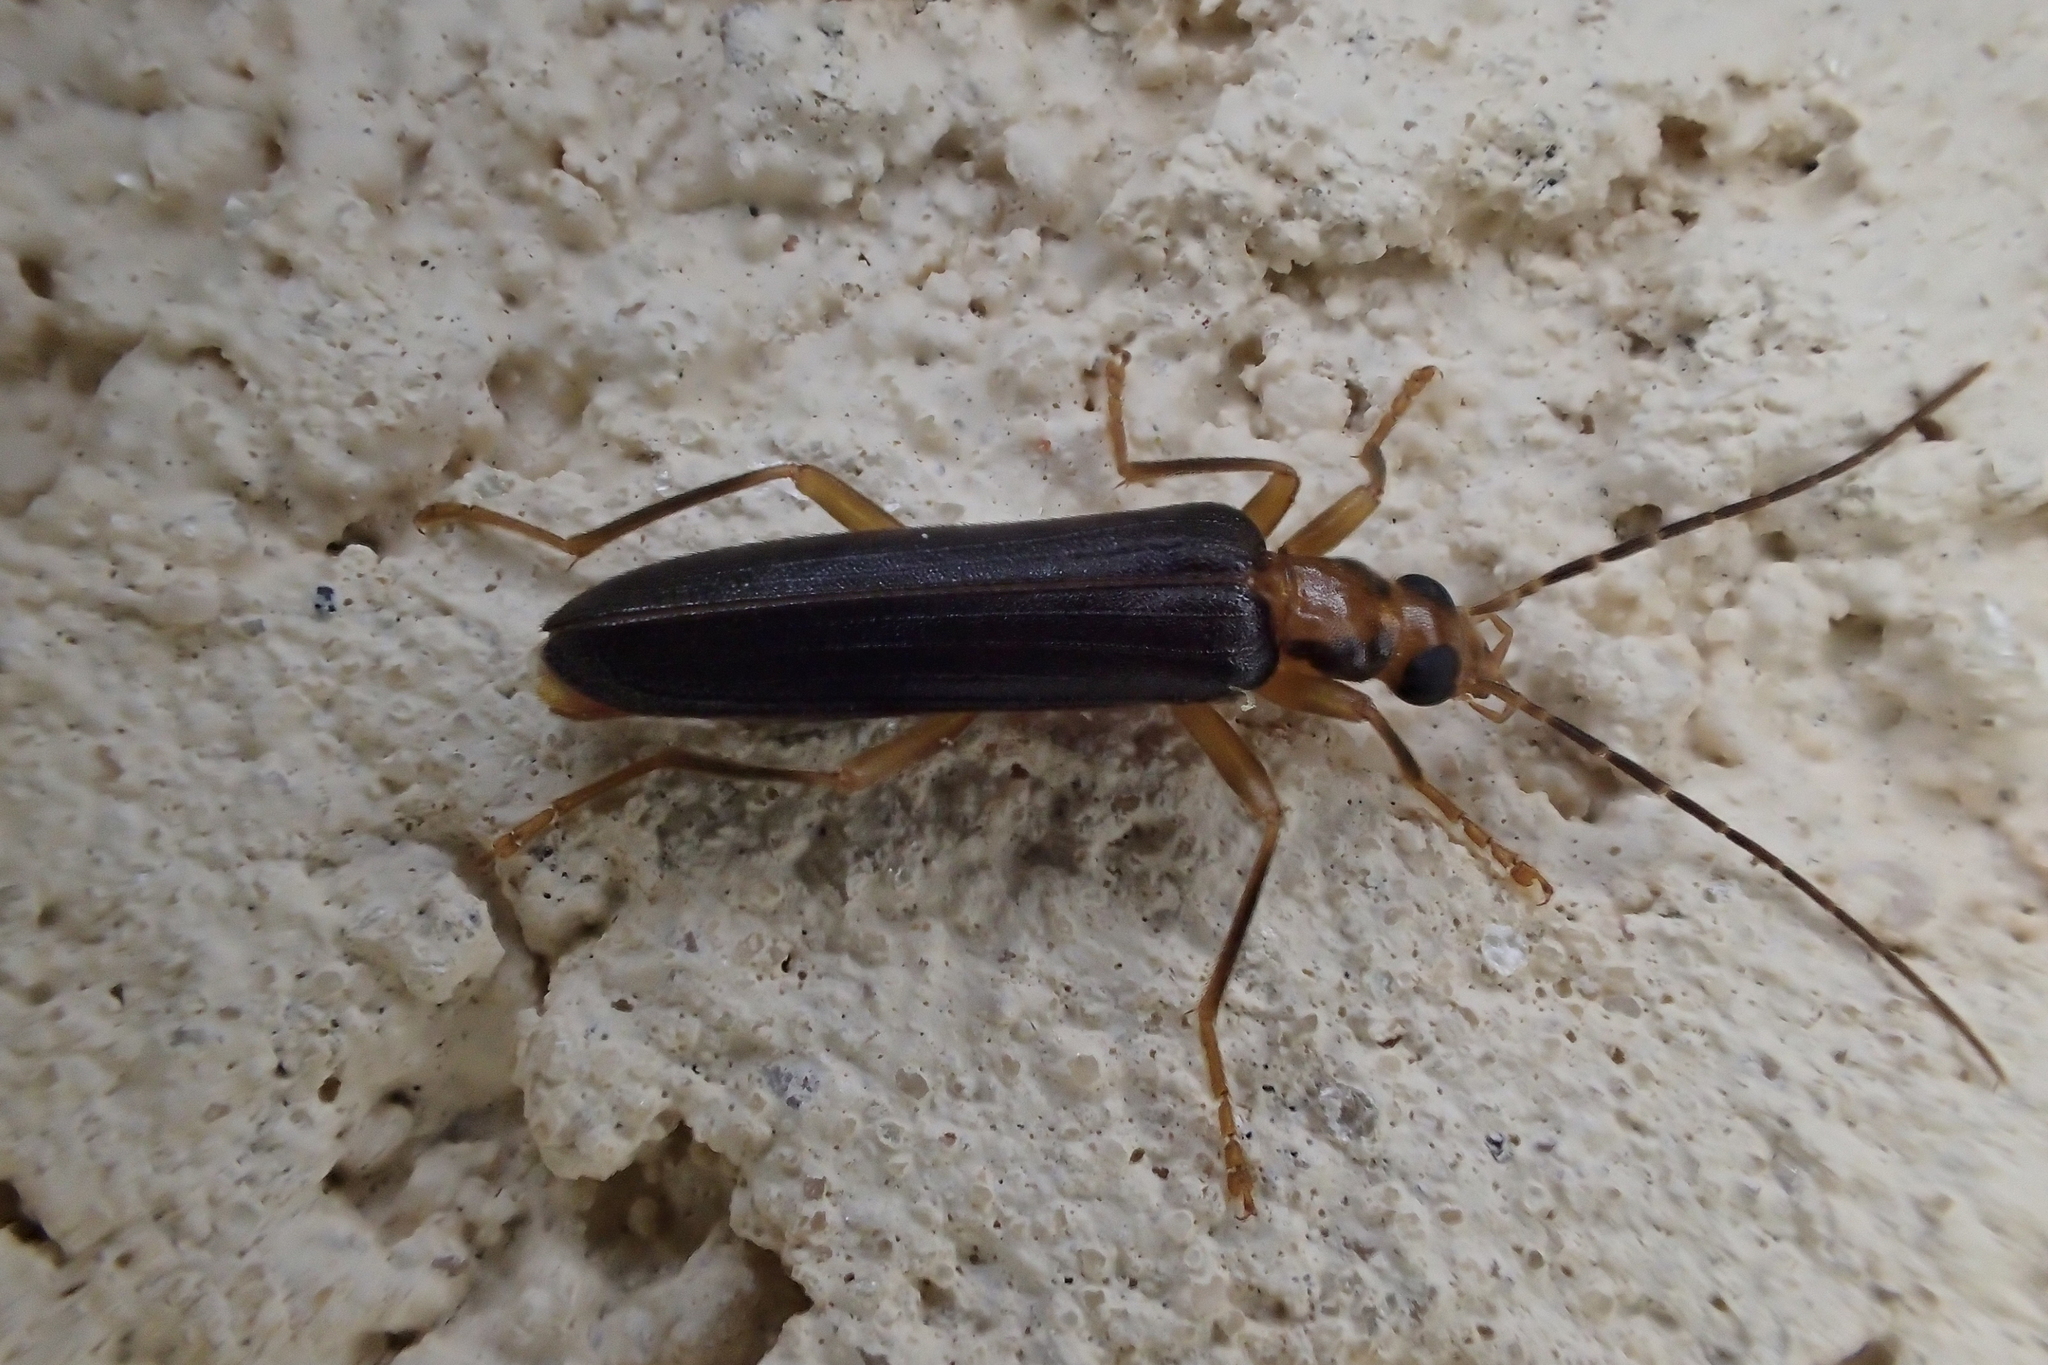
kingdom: Animalia
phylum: Arthropoda
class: Insecta
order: Coleoptera
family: Oedemeridae
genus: Nacerdes
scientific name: Nacerdes carniolica
